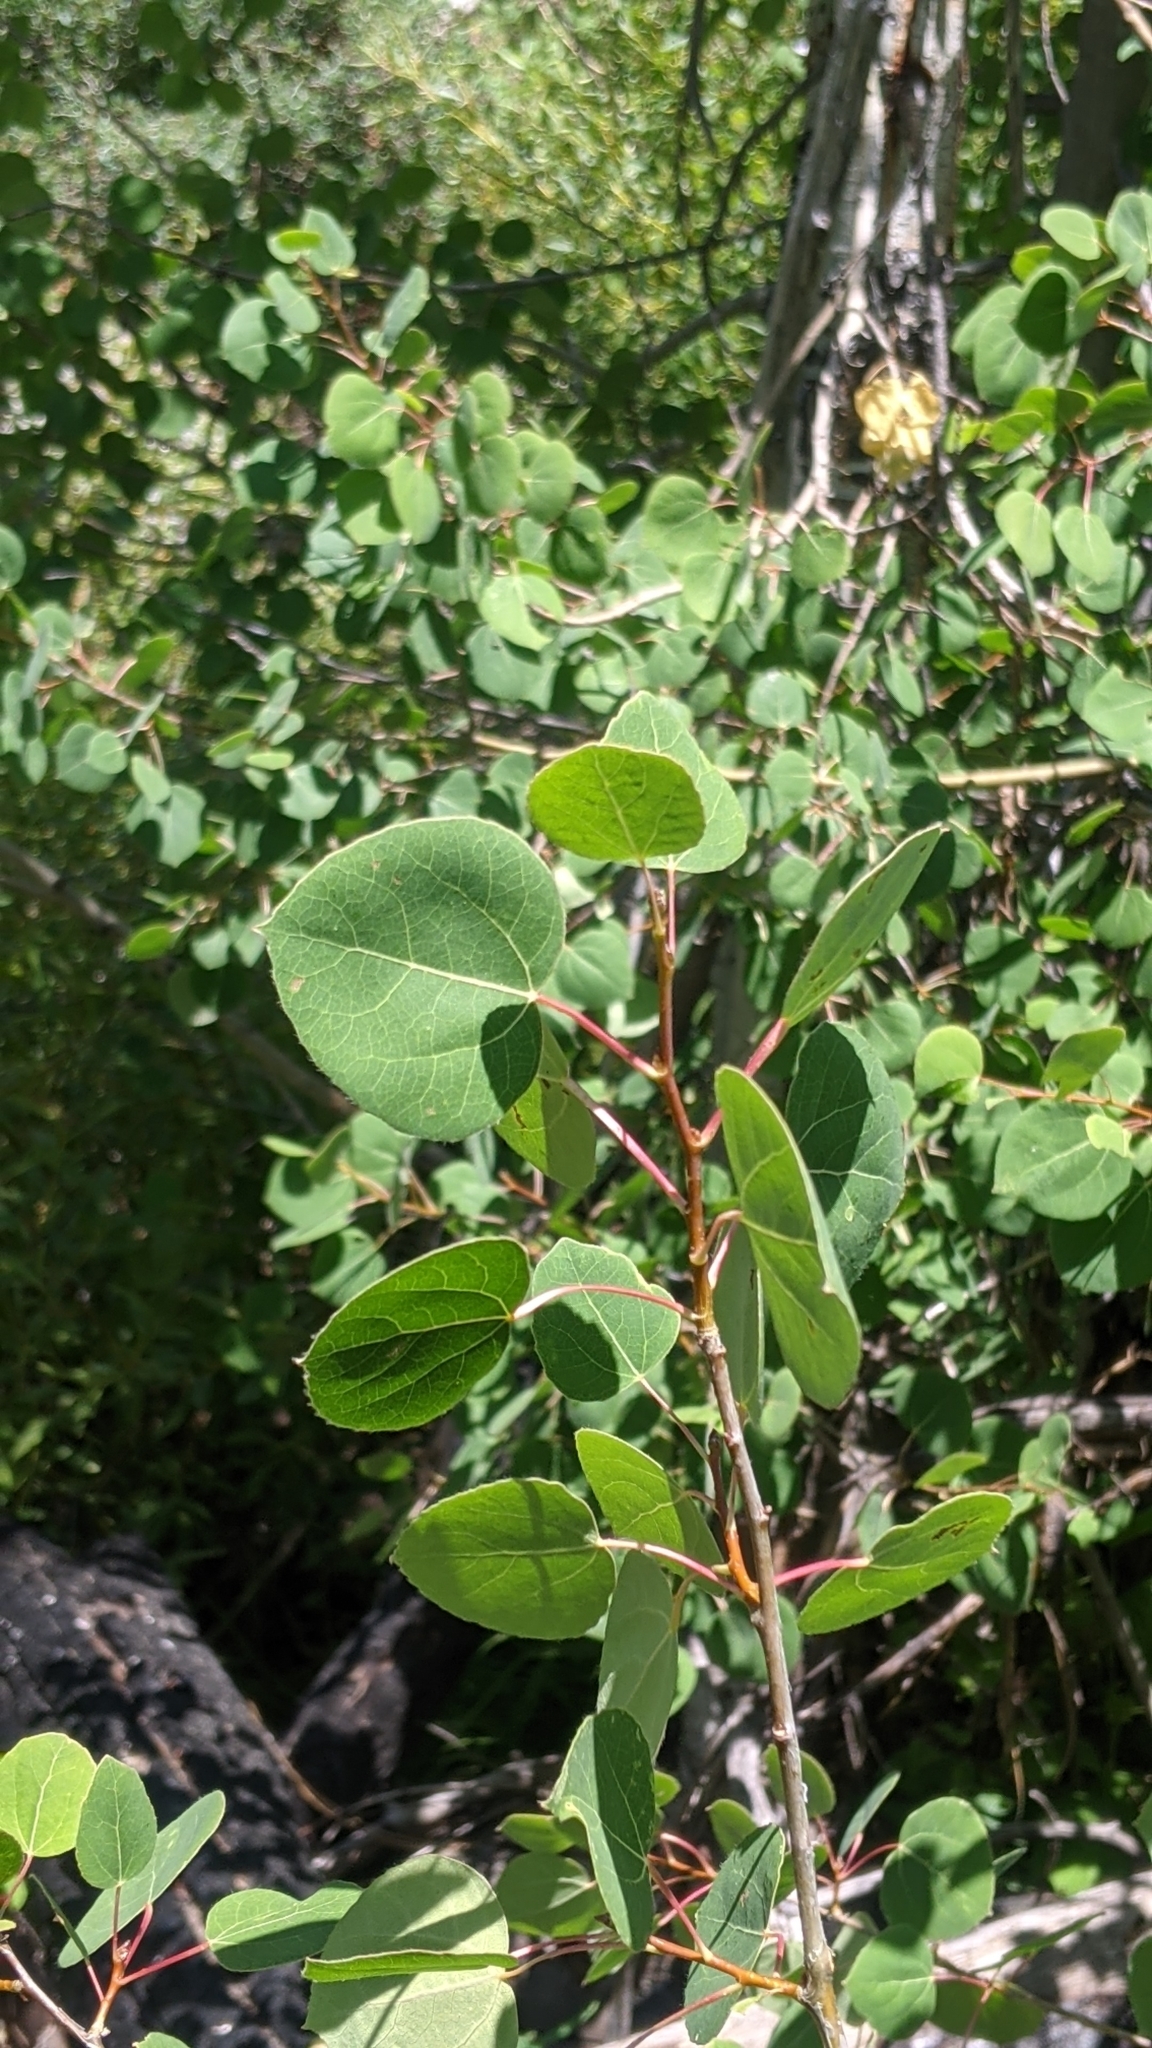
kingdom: Plantae
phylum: Tracheophyta
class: Magnoliopsida
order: Malpighiales
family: Salicaceae
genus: Populus
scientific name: Populus tremuloides
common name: Quaking aspen
